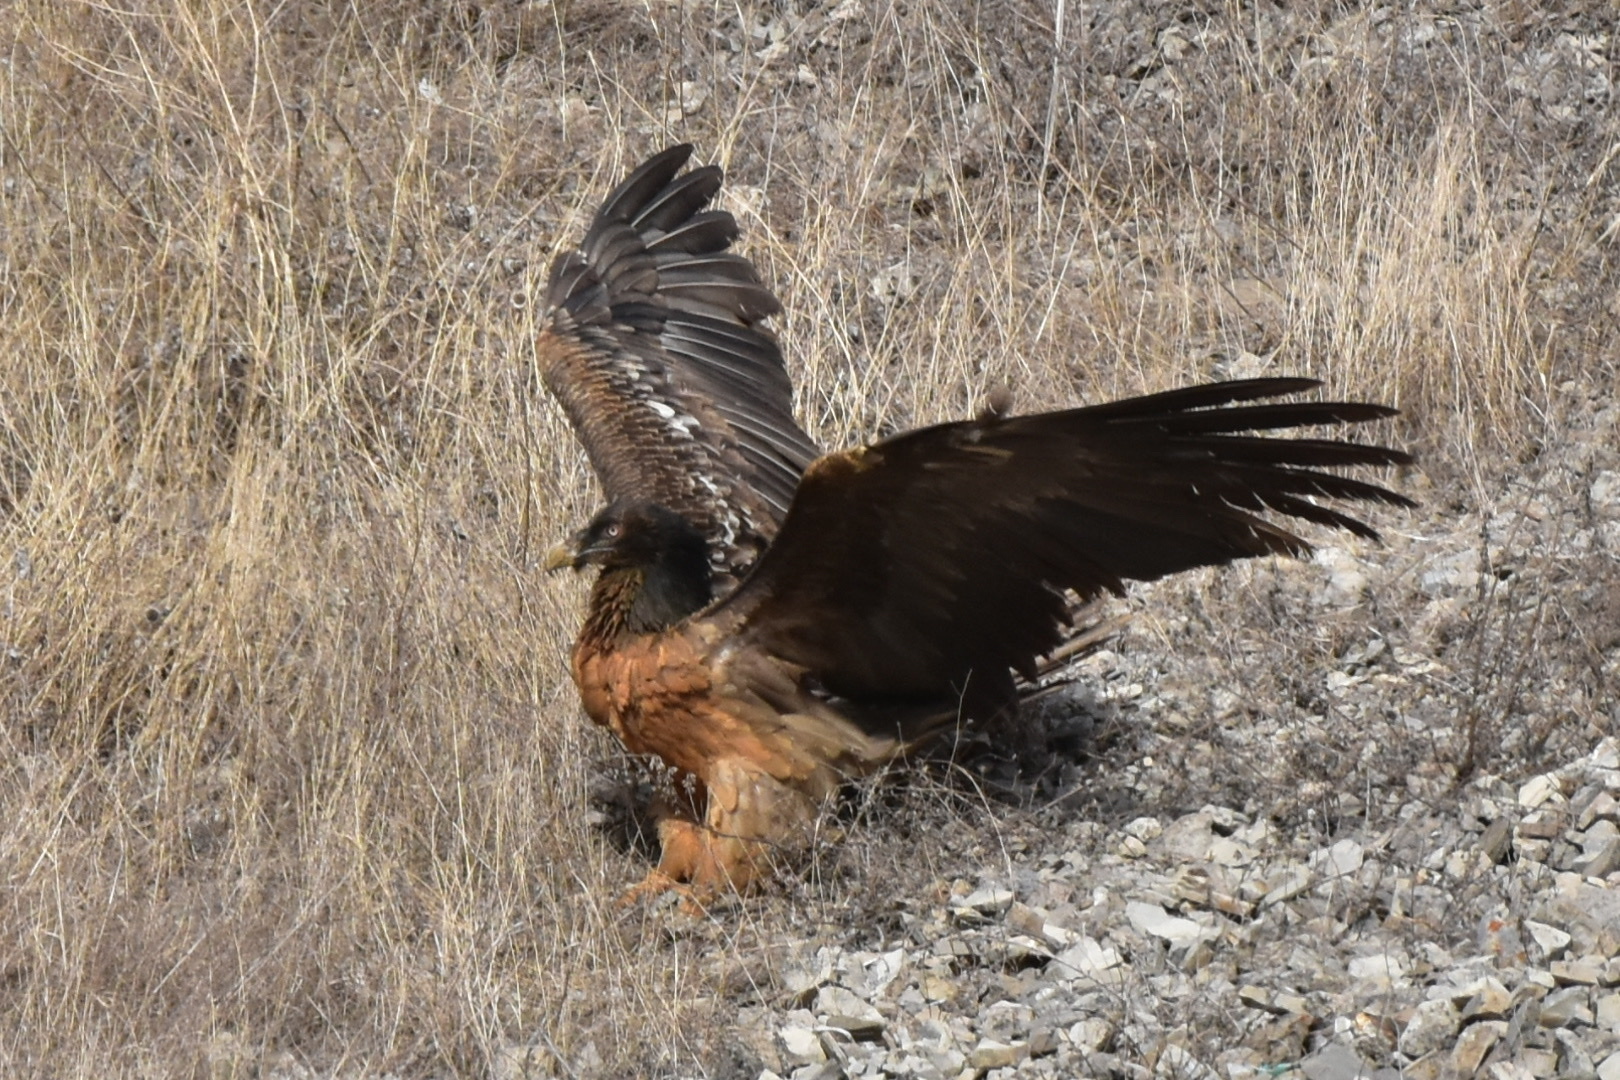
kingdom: Animalia
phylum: Chordata
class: Aves
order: Accipitriformes
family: Accipitridae
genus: Gypaetus
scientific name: Gypaetus barbatus
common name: Bearded vulture
